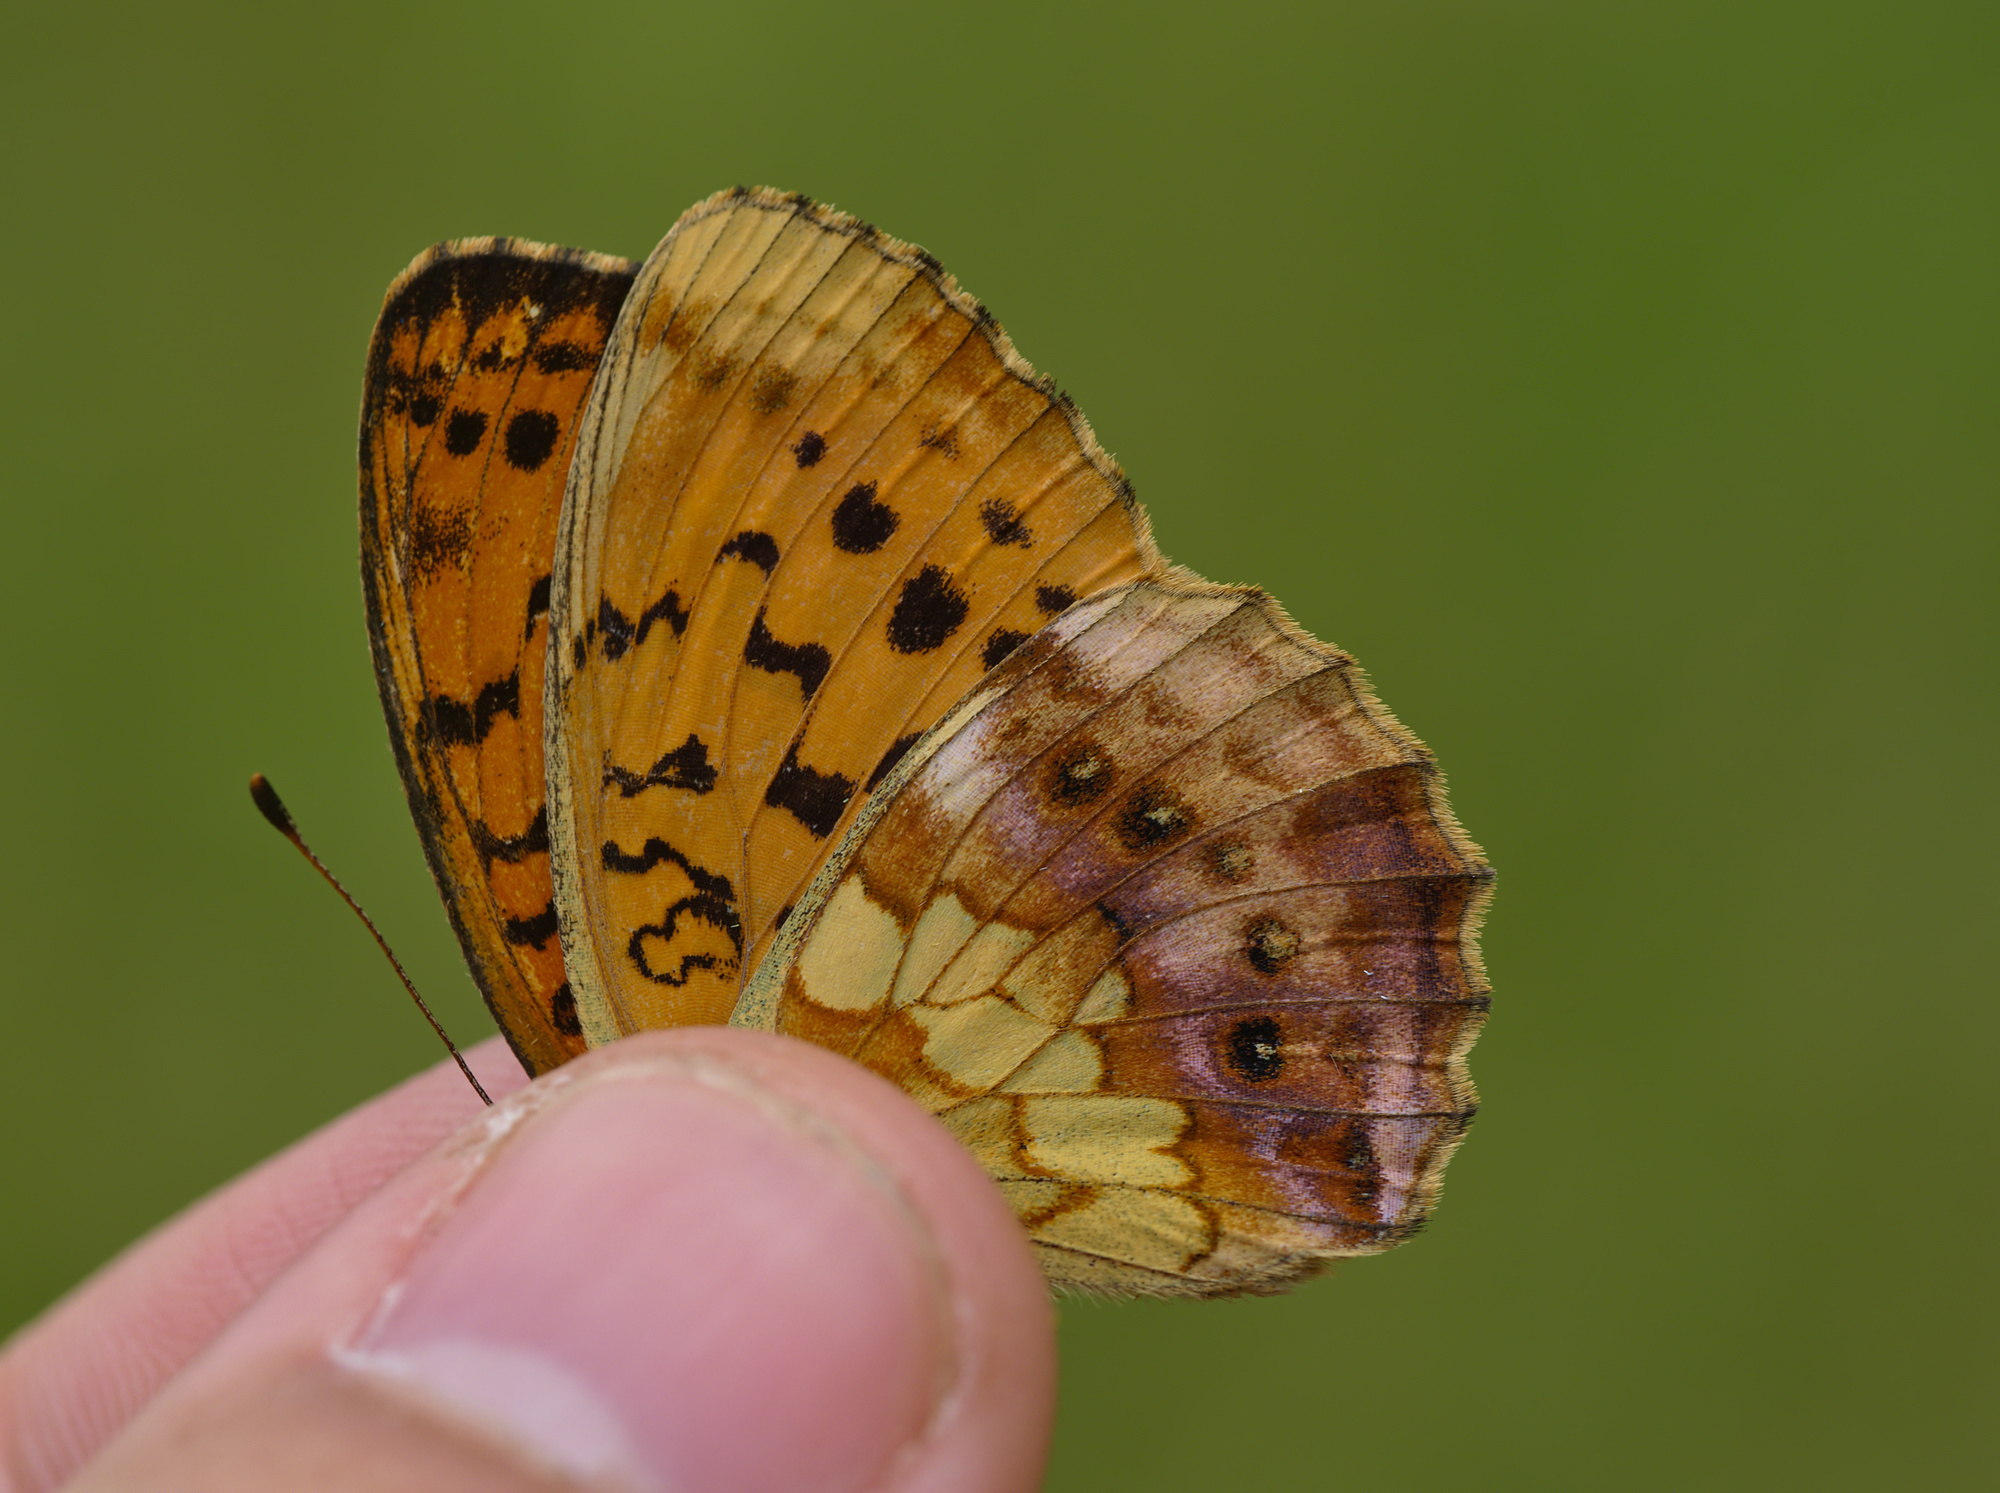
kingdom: Animalia
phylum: Arthropoda
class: Insecta
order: Lepidoptera
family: Nymphalidae
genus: Brenthis
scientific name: Brenthis daphne
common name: Marbled fritillary
